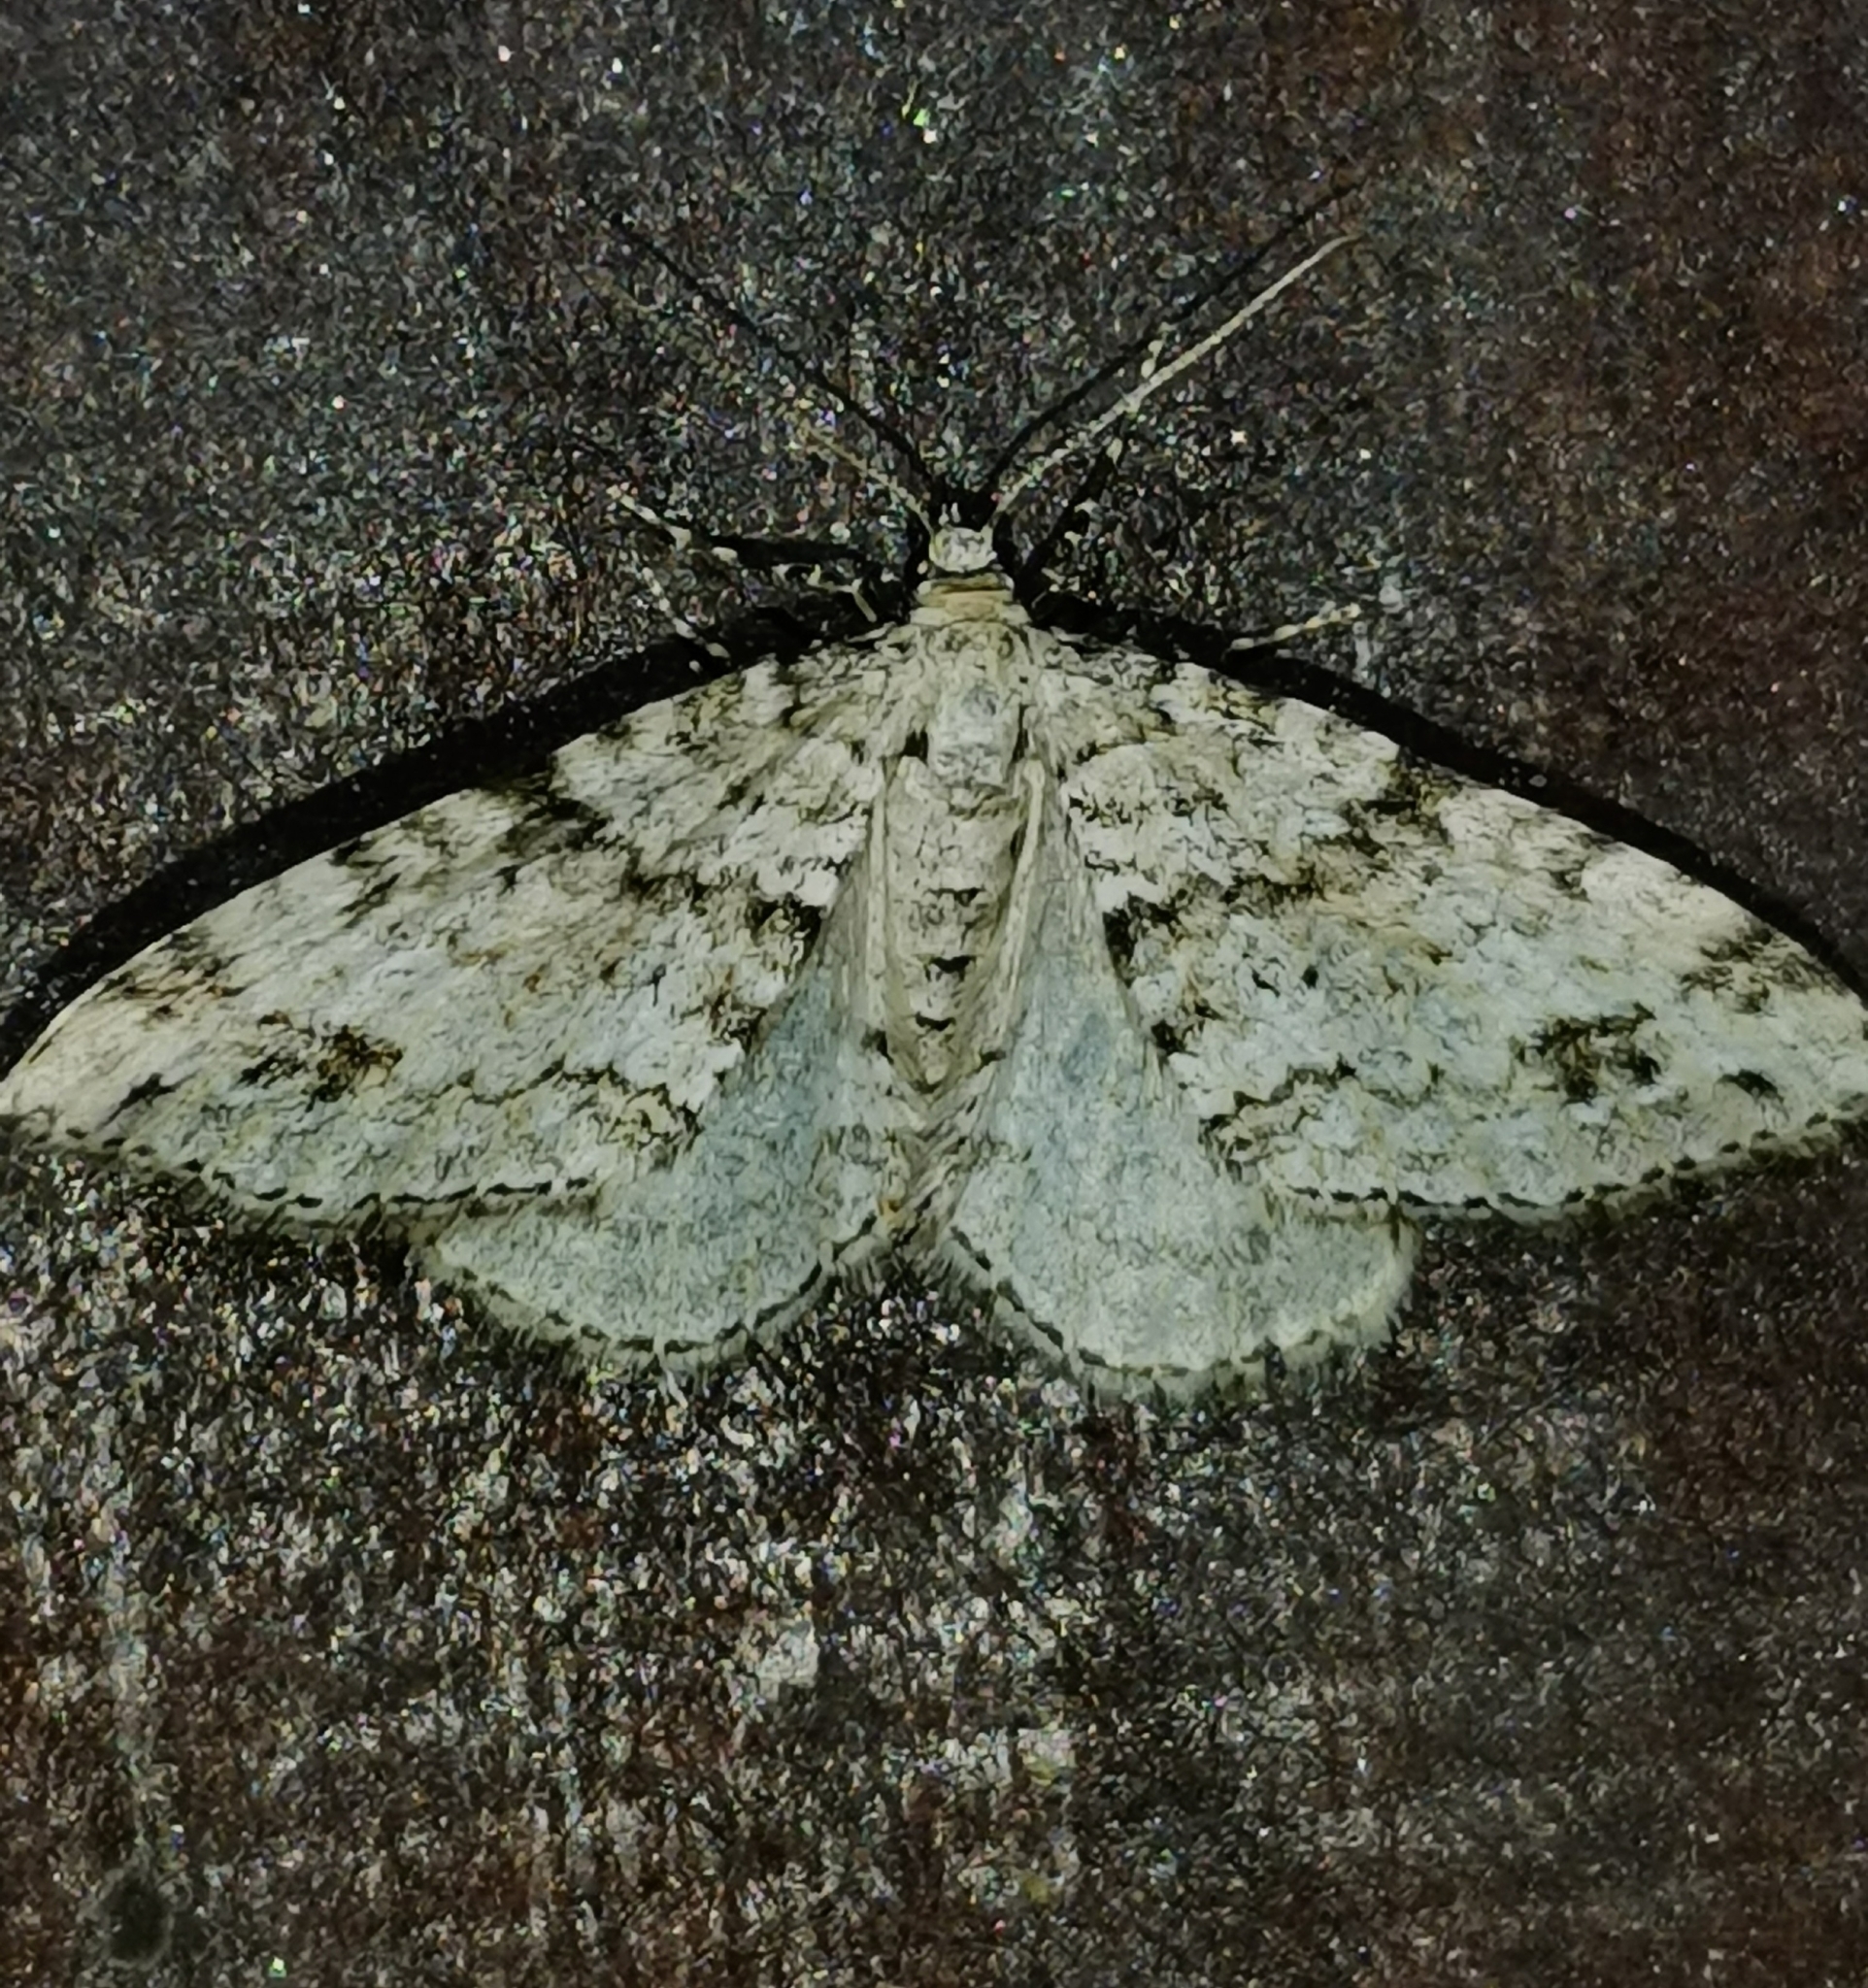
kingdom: Animalia
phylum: Arthropoda
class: Insecta
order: Lepidoptera
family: Geometridae
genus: Perizoma
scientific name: Perizoma didymata
